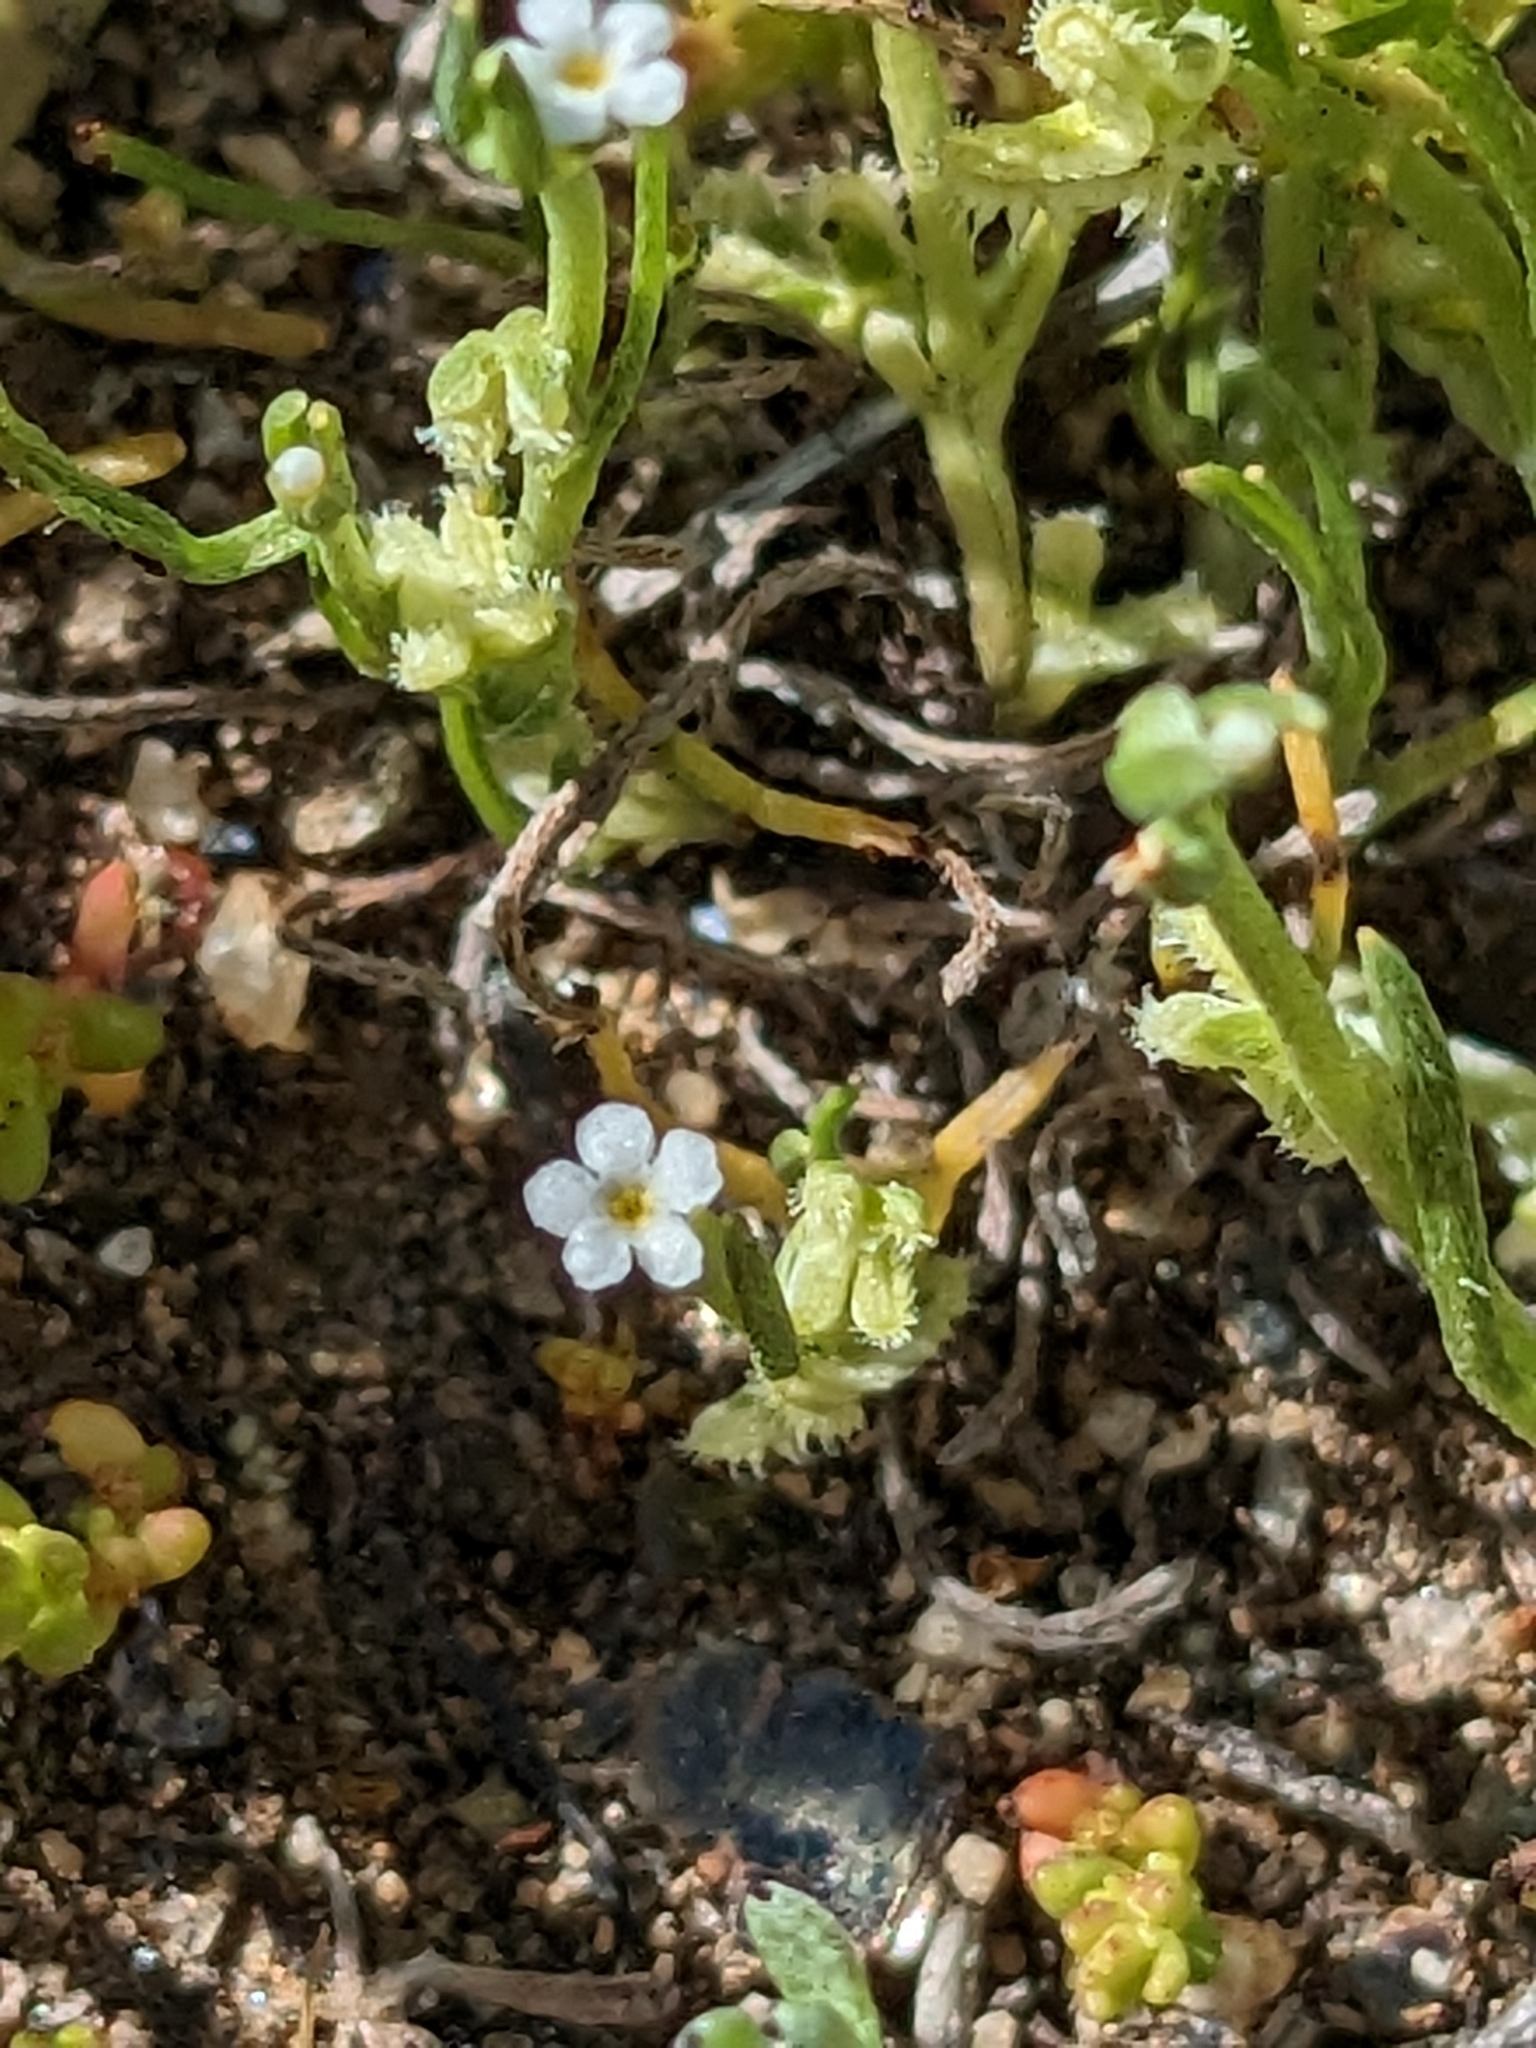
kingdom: Plantae
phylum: Tracheophyta
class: Magnoliopsida
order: Boraginales
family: Boraginaceae
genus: Pectocarya
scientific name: Pectocarya linearis
